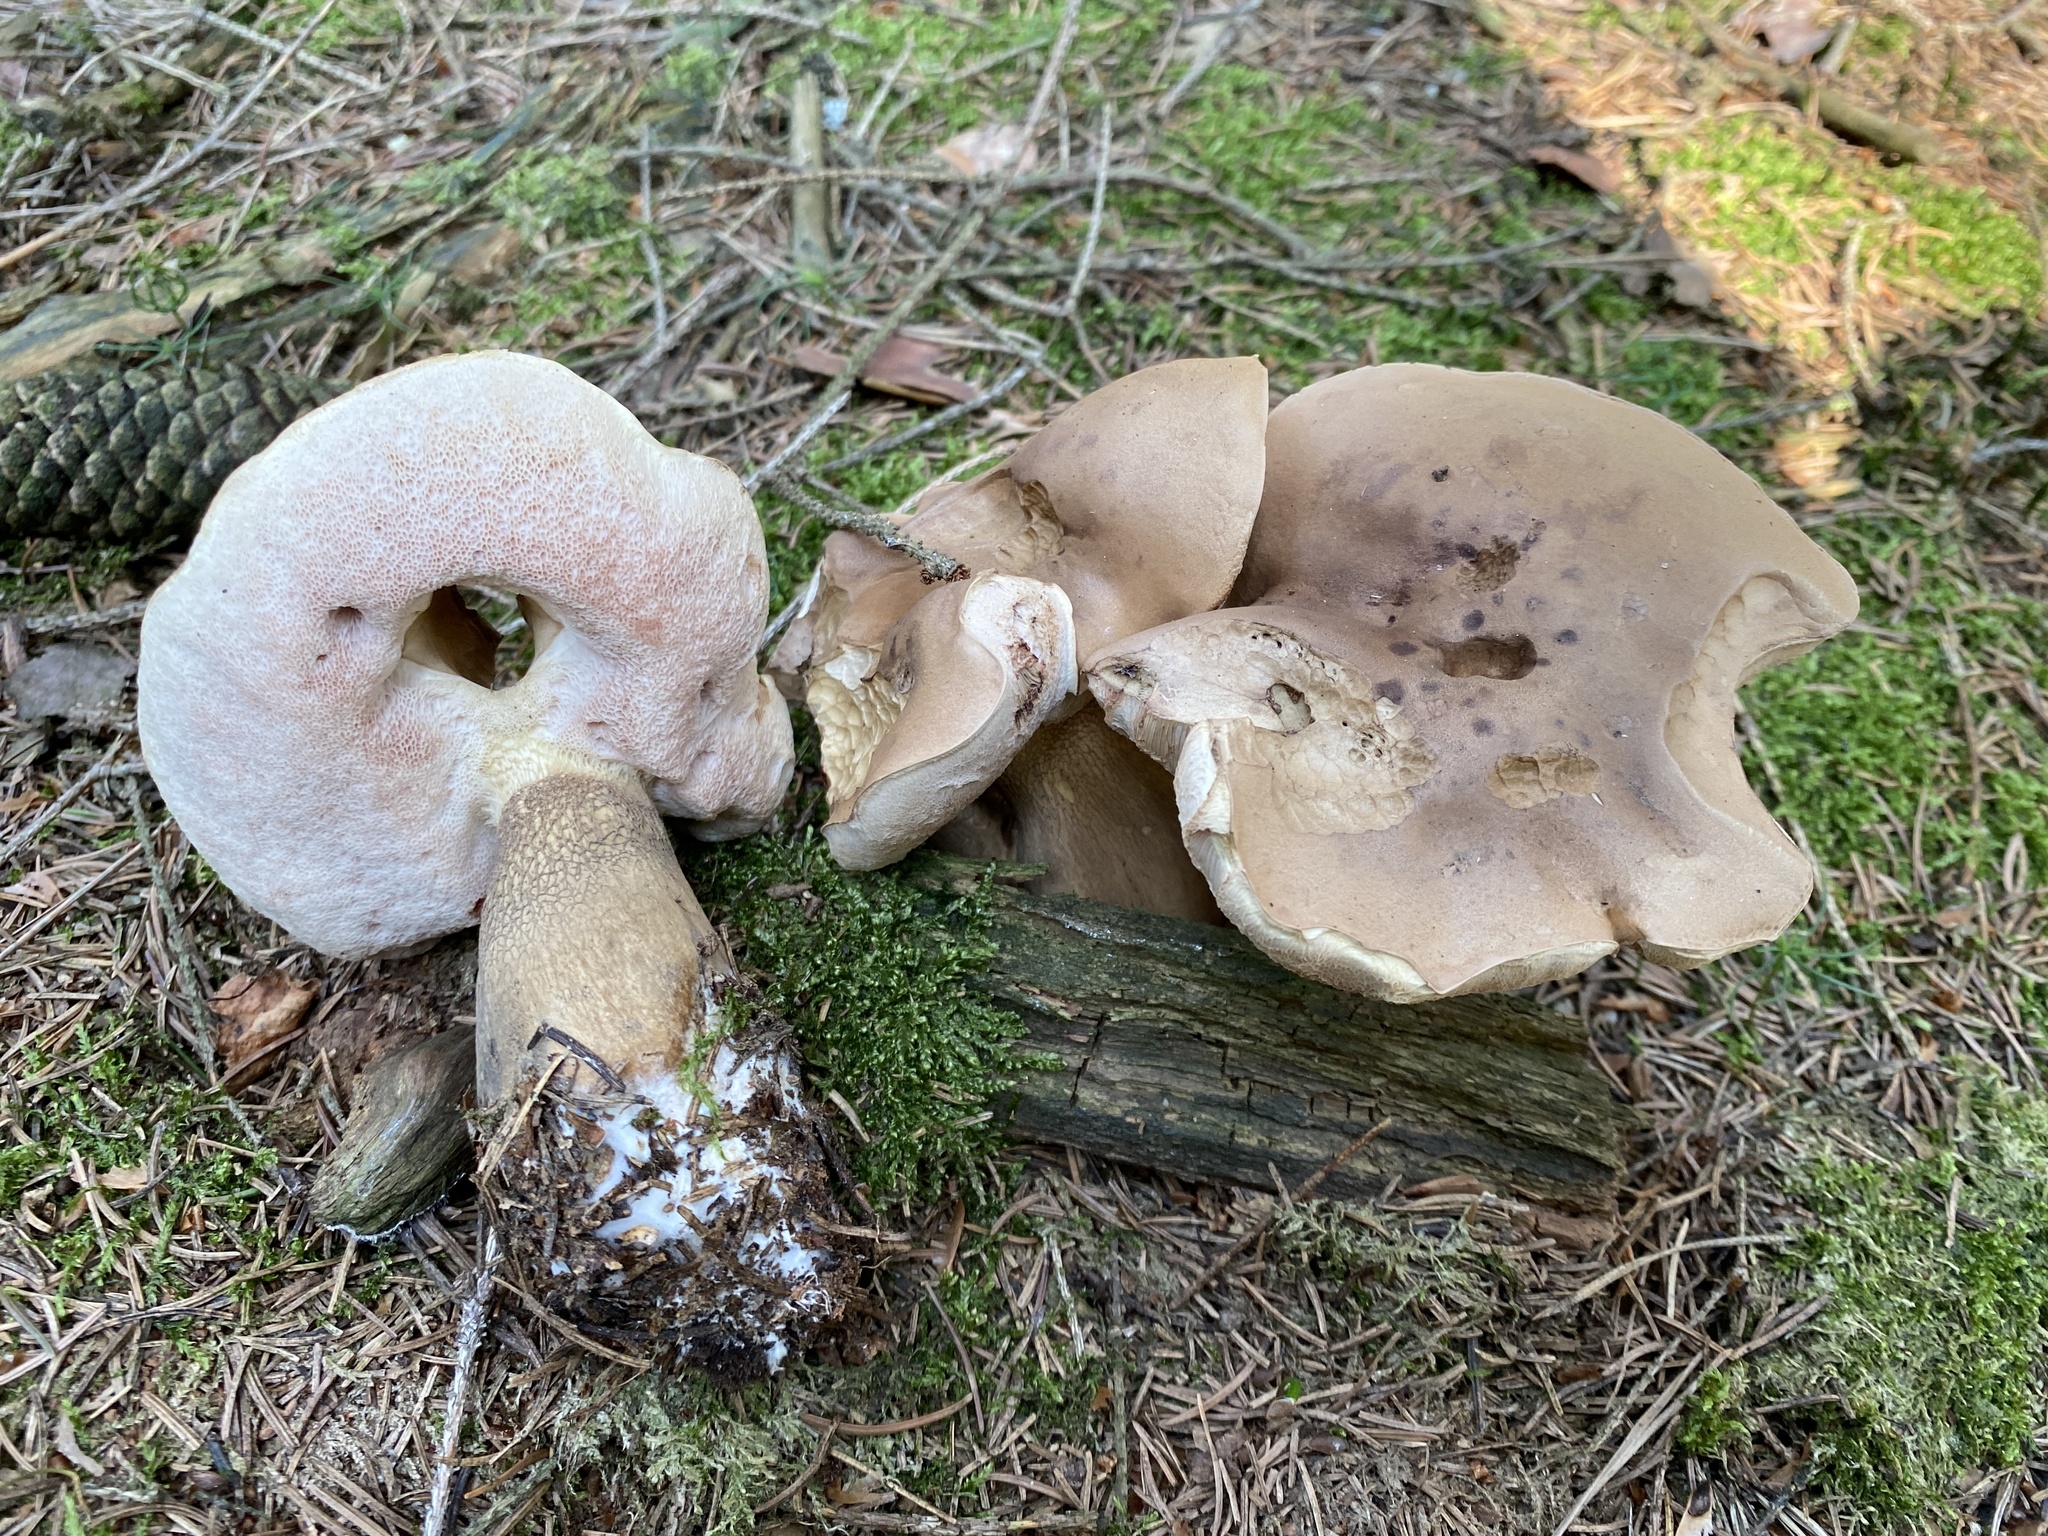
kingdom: Fungi
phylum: Basidiomycota
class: Agaricomycetes
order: Boletales
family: Boletaceae
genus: Tylopilus
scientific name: Tylopilus felleus
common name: Bitter bolete
